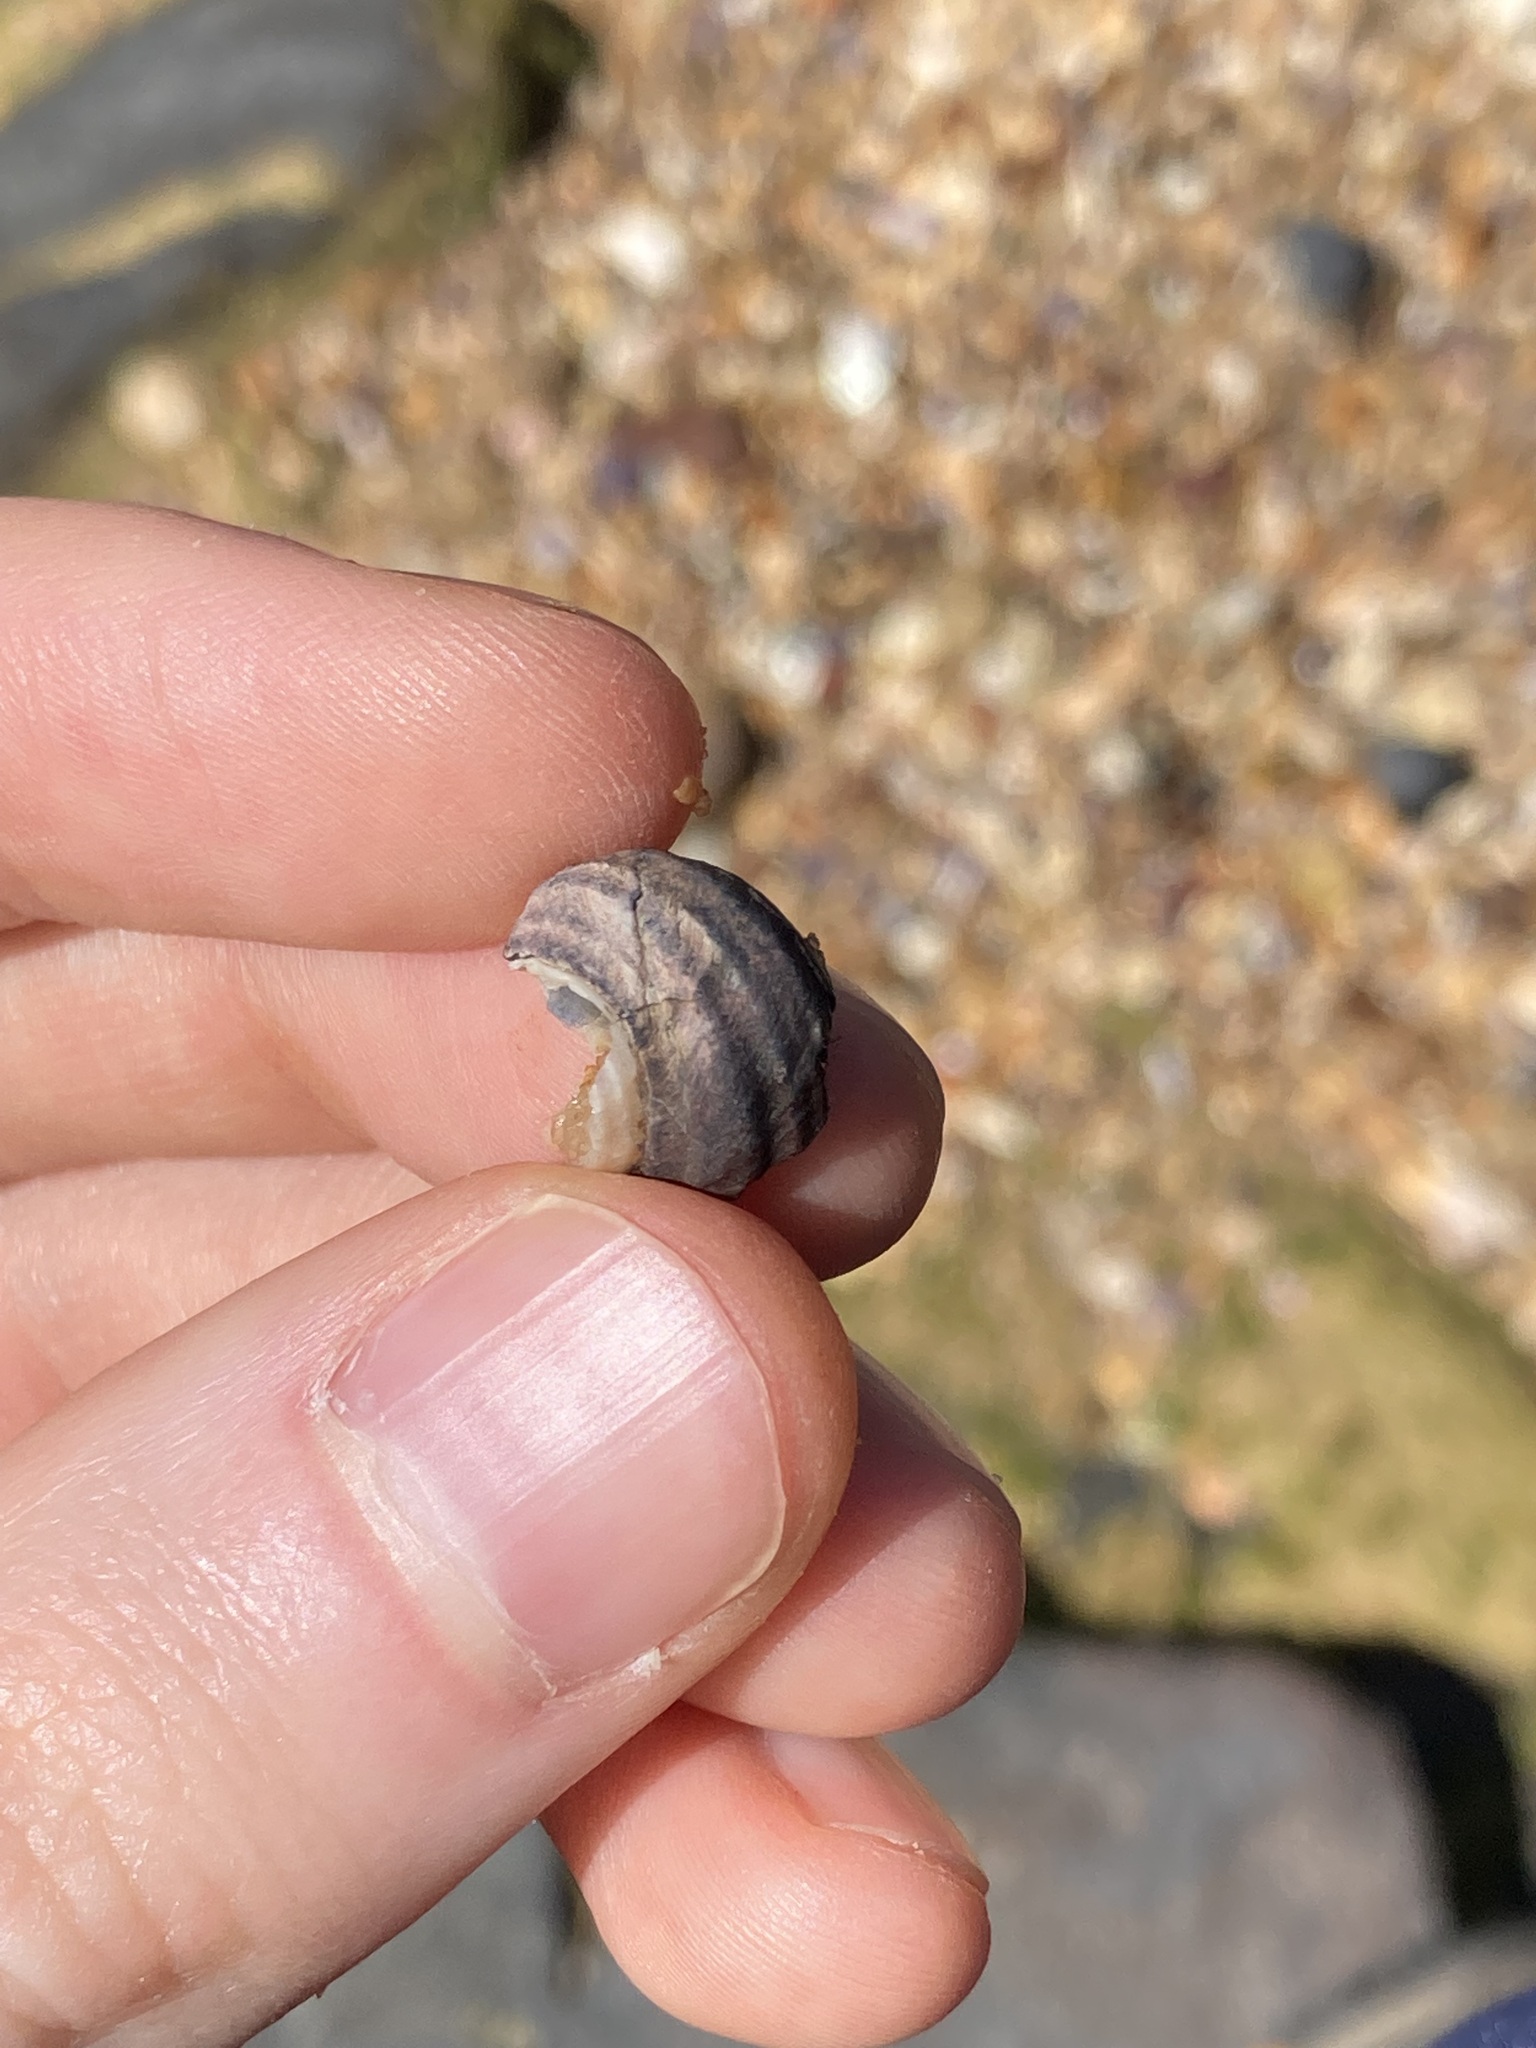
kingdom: Animalia
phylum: Mollusca
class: Gastropoda
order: Trochida
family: Trochidae
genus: Austrocochlea
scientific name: Austrocochlea constricta
